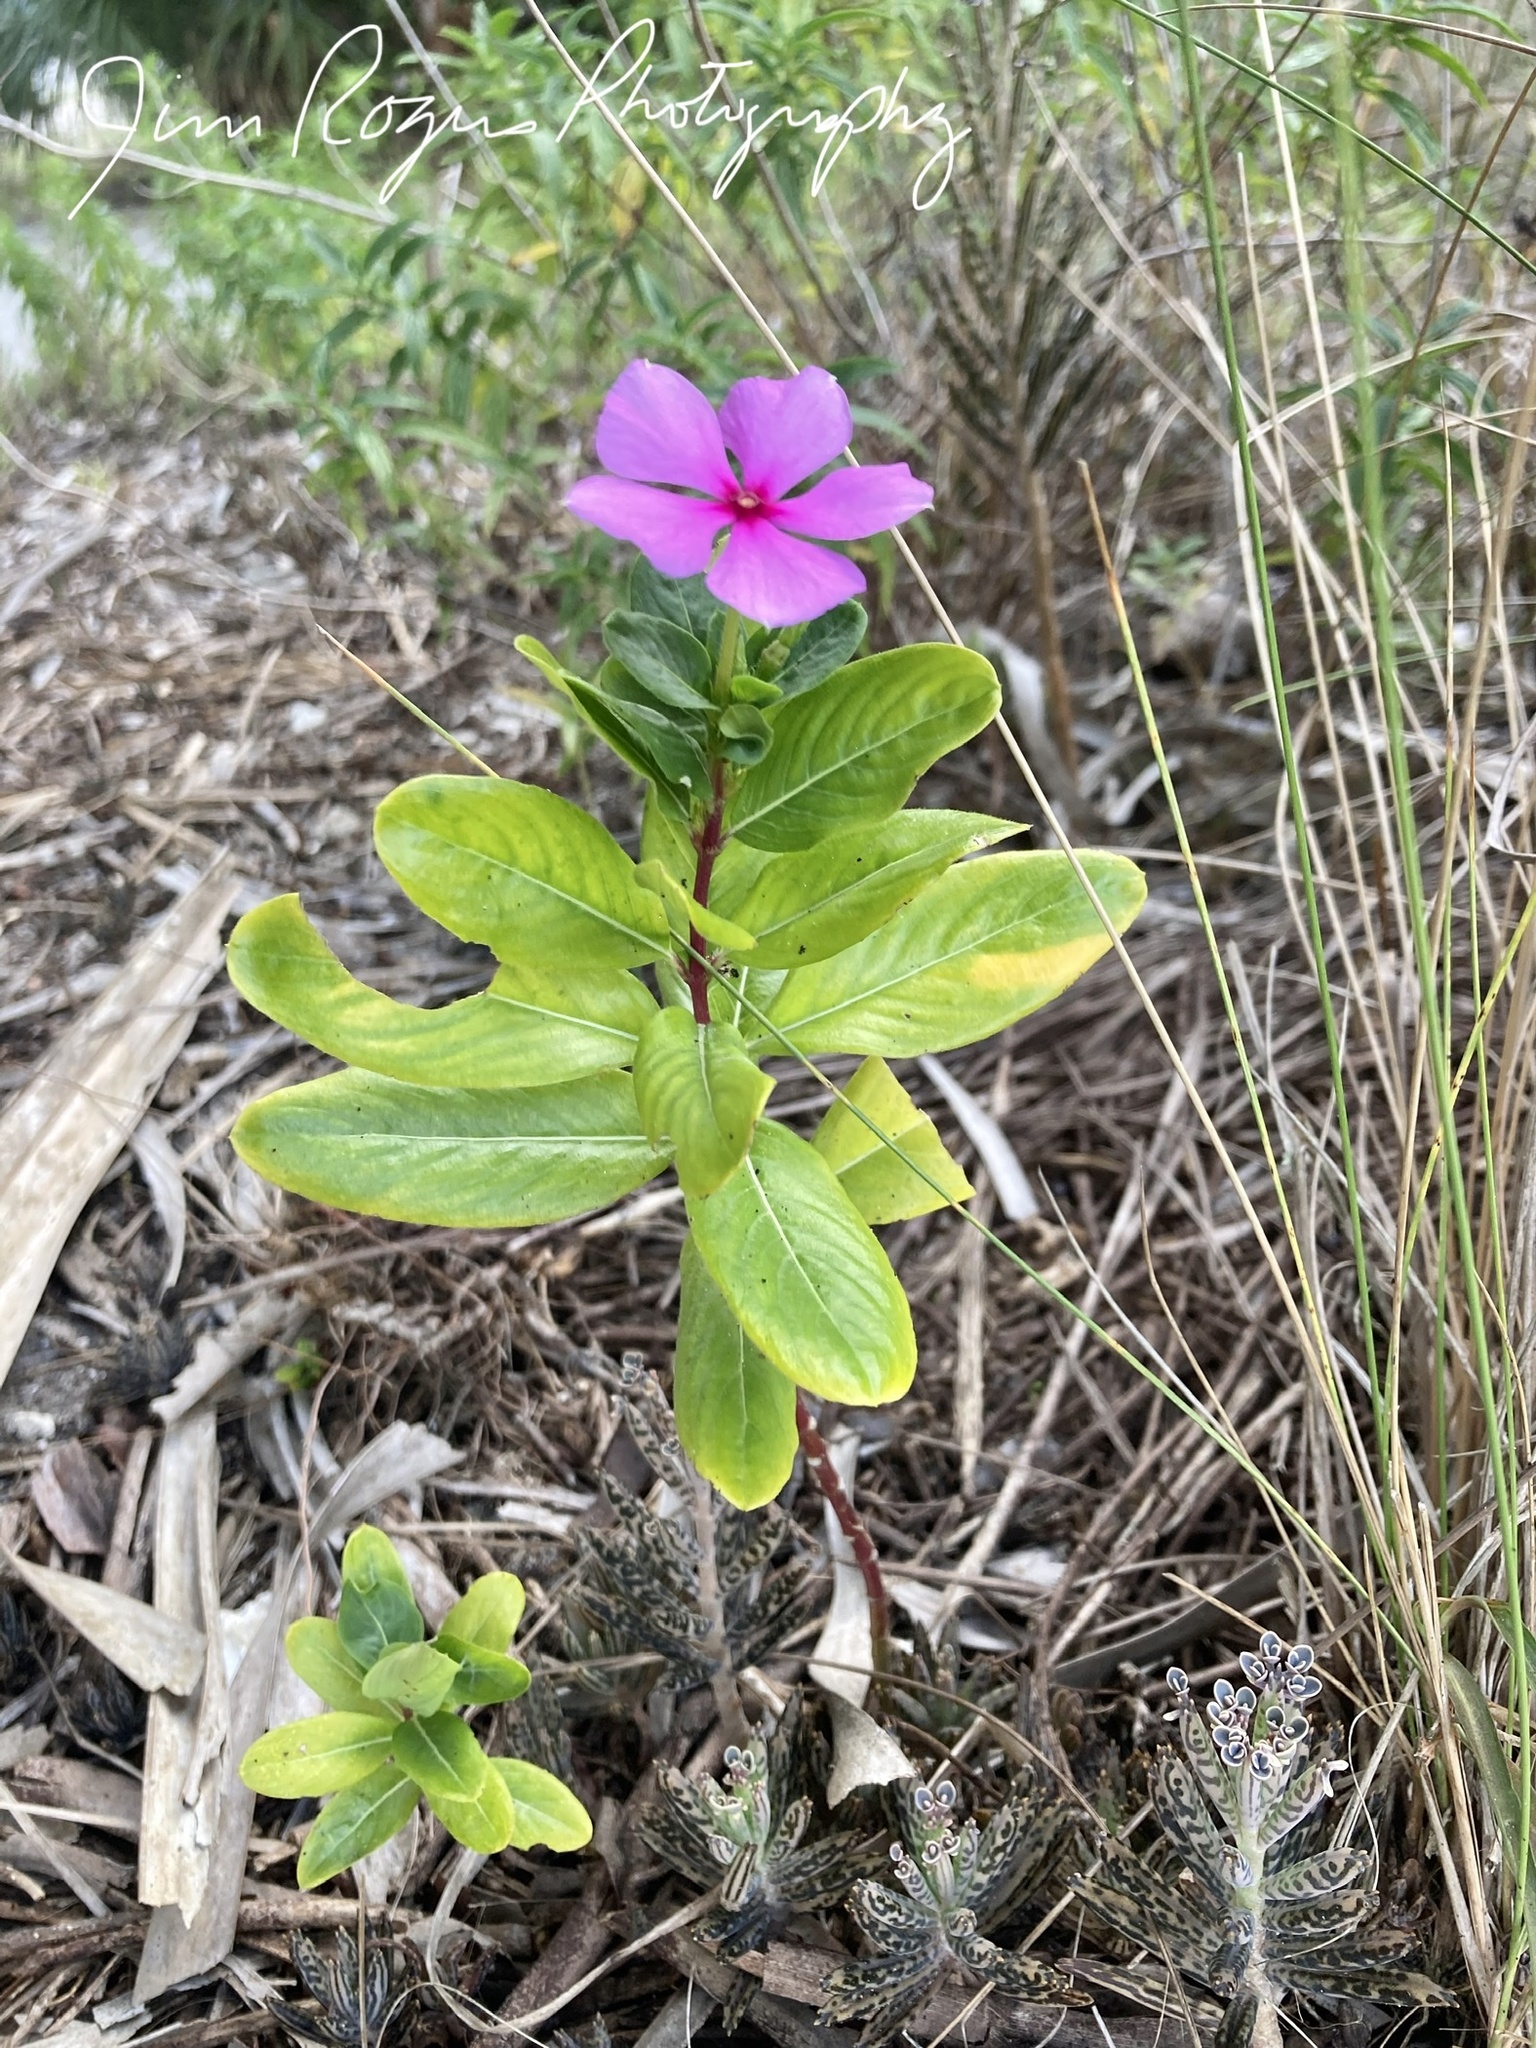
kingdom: Plantae
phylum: Tracheophyta
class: Magnoliopsida
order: Gentianales
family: Apocynaceae
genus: Catharanthus
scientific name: Catharanthus roseus
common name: Madagascar periwinkle
